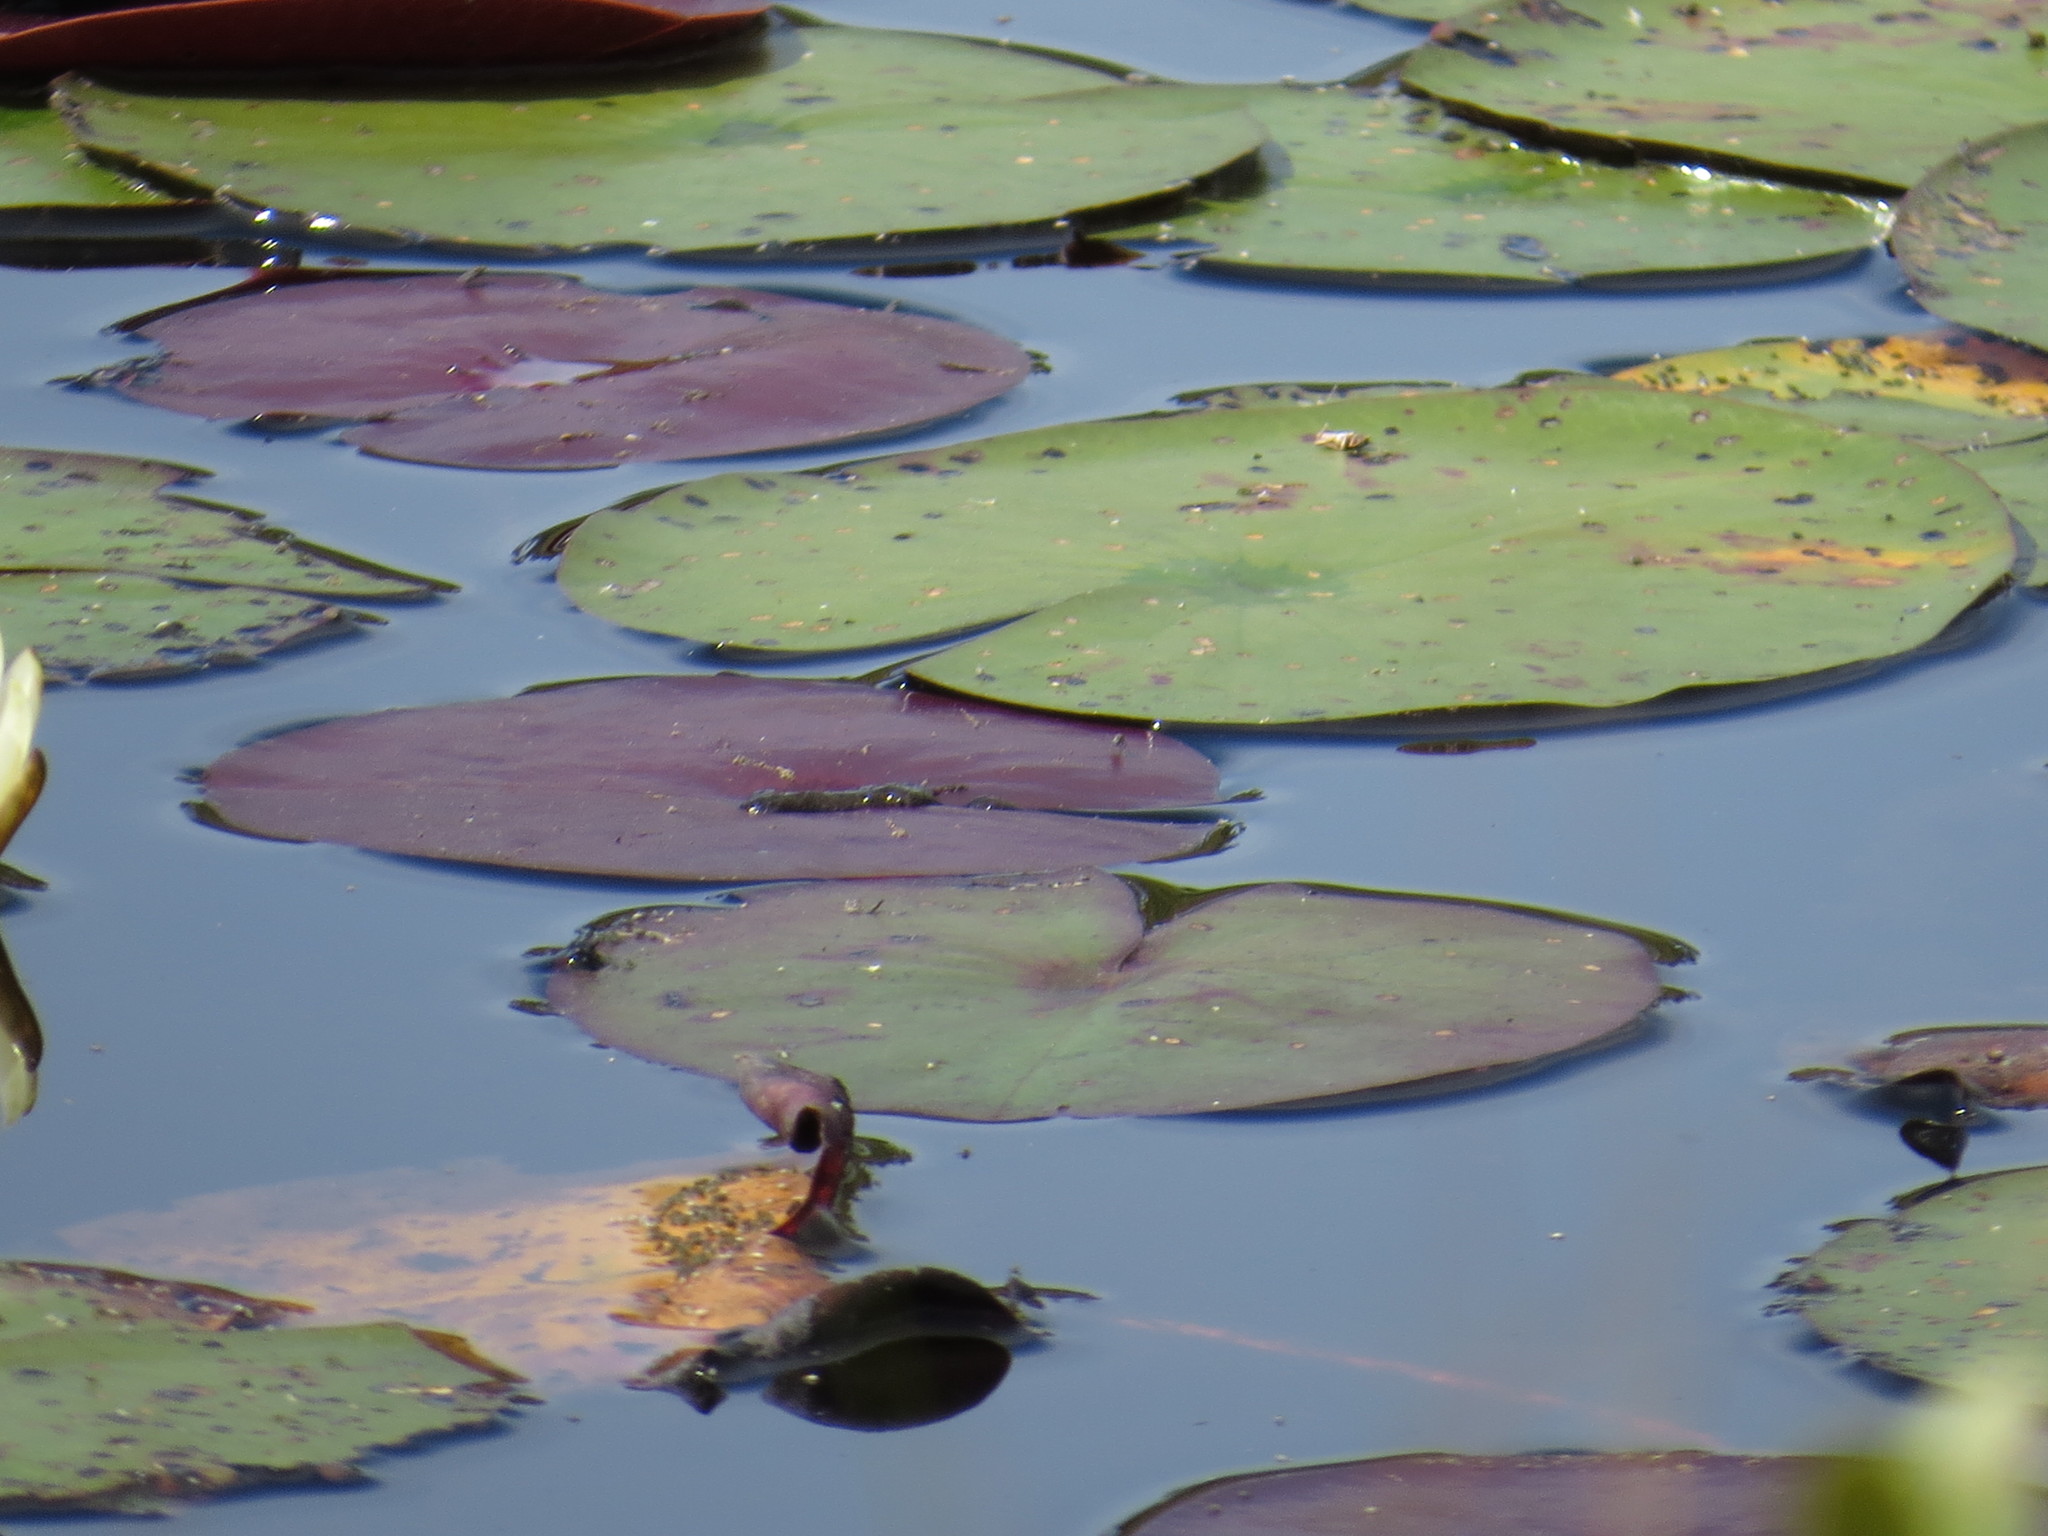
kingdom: Plantae
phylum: Tracheophyta
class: Magnoliopsida
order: Nymphaeales
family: Nymphaeaceae
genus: Nymphaea
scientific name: Nymphaea odorata
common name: Fragrant water-lily
